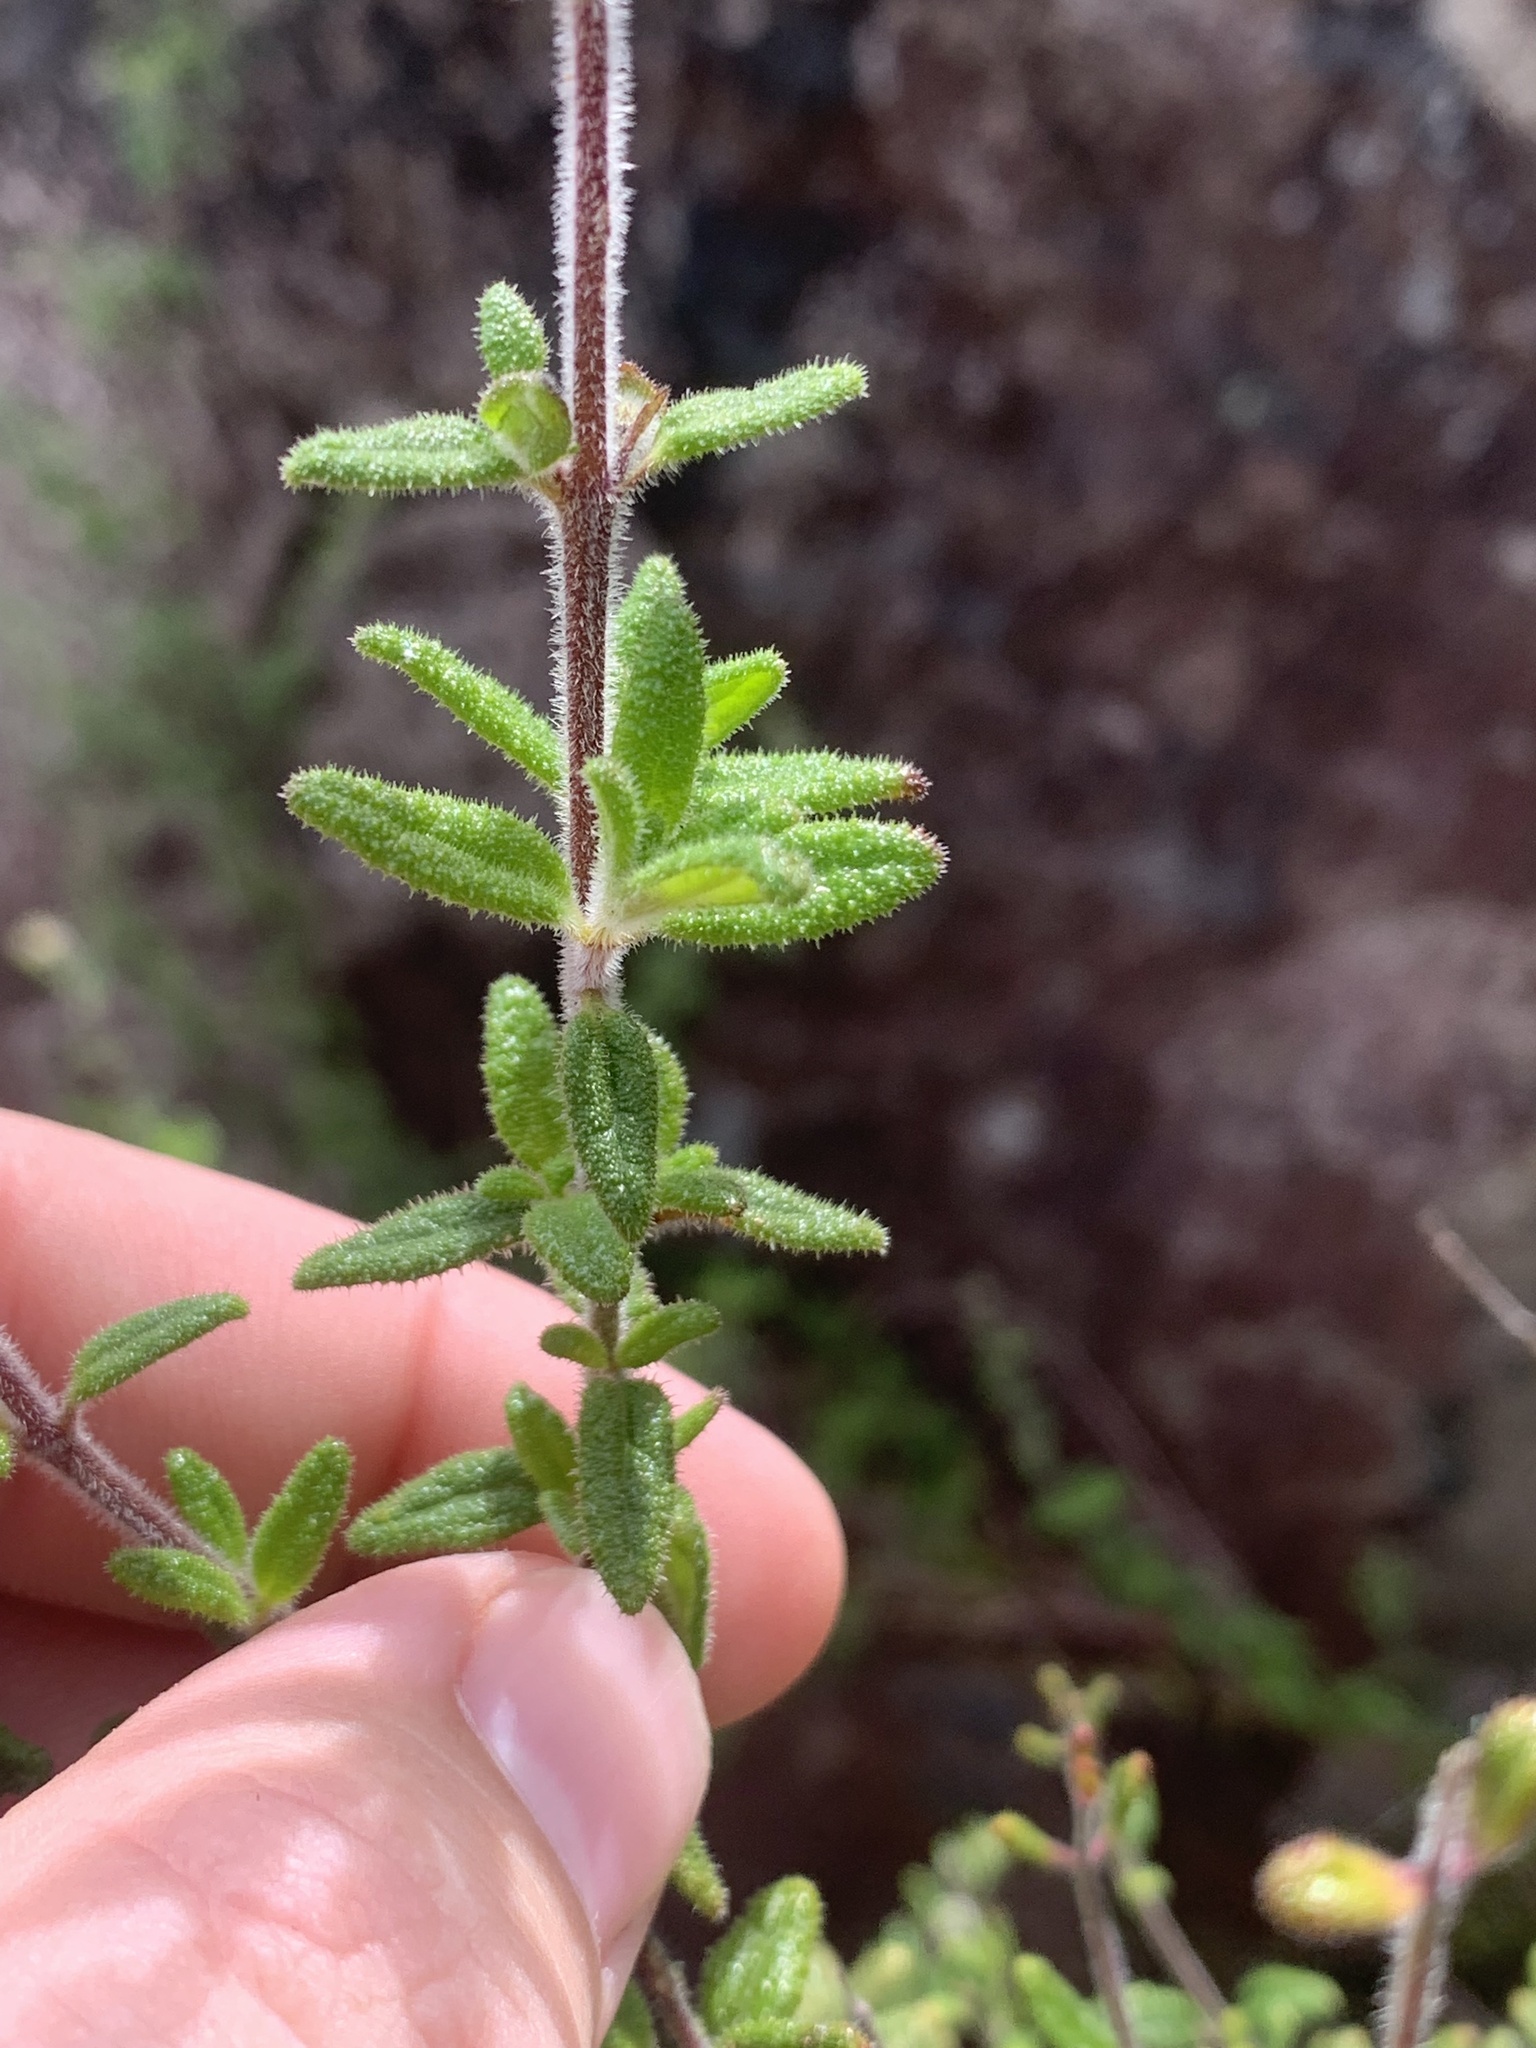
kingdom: Plantae
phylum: Tracheophyta
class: Magnoliopsida
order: Lamiales
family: Lamiaceae
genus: Prostanthera
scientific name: Prostanthera hirtula
